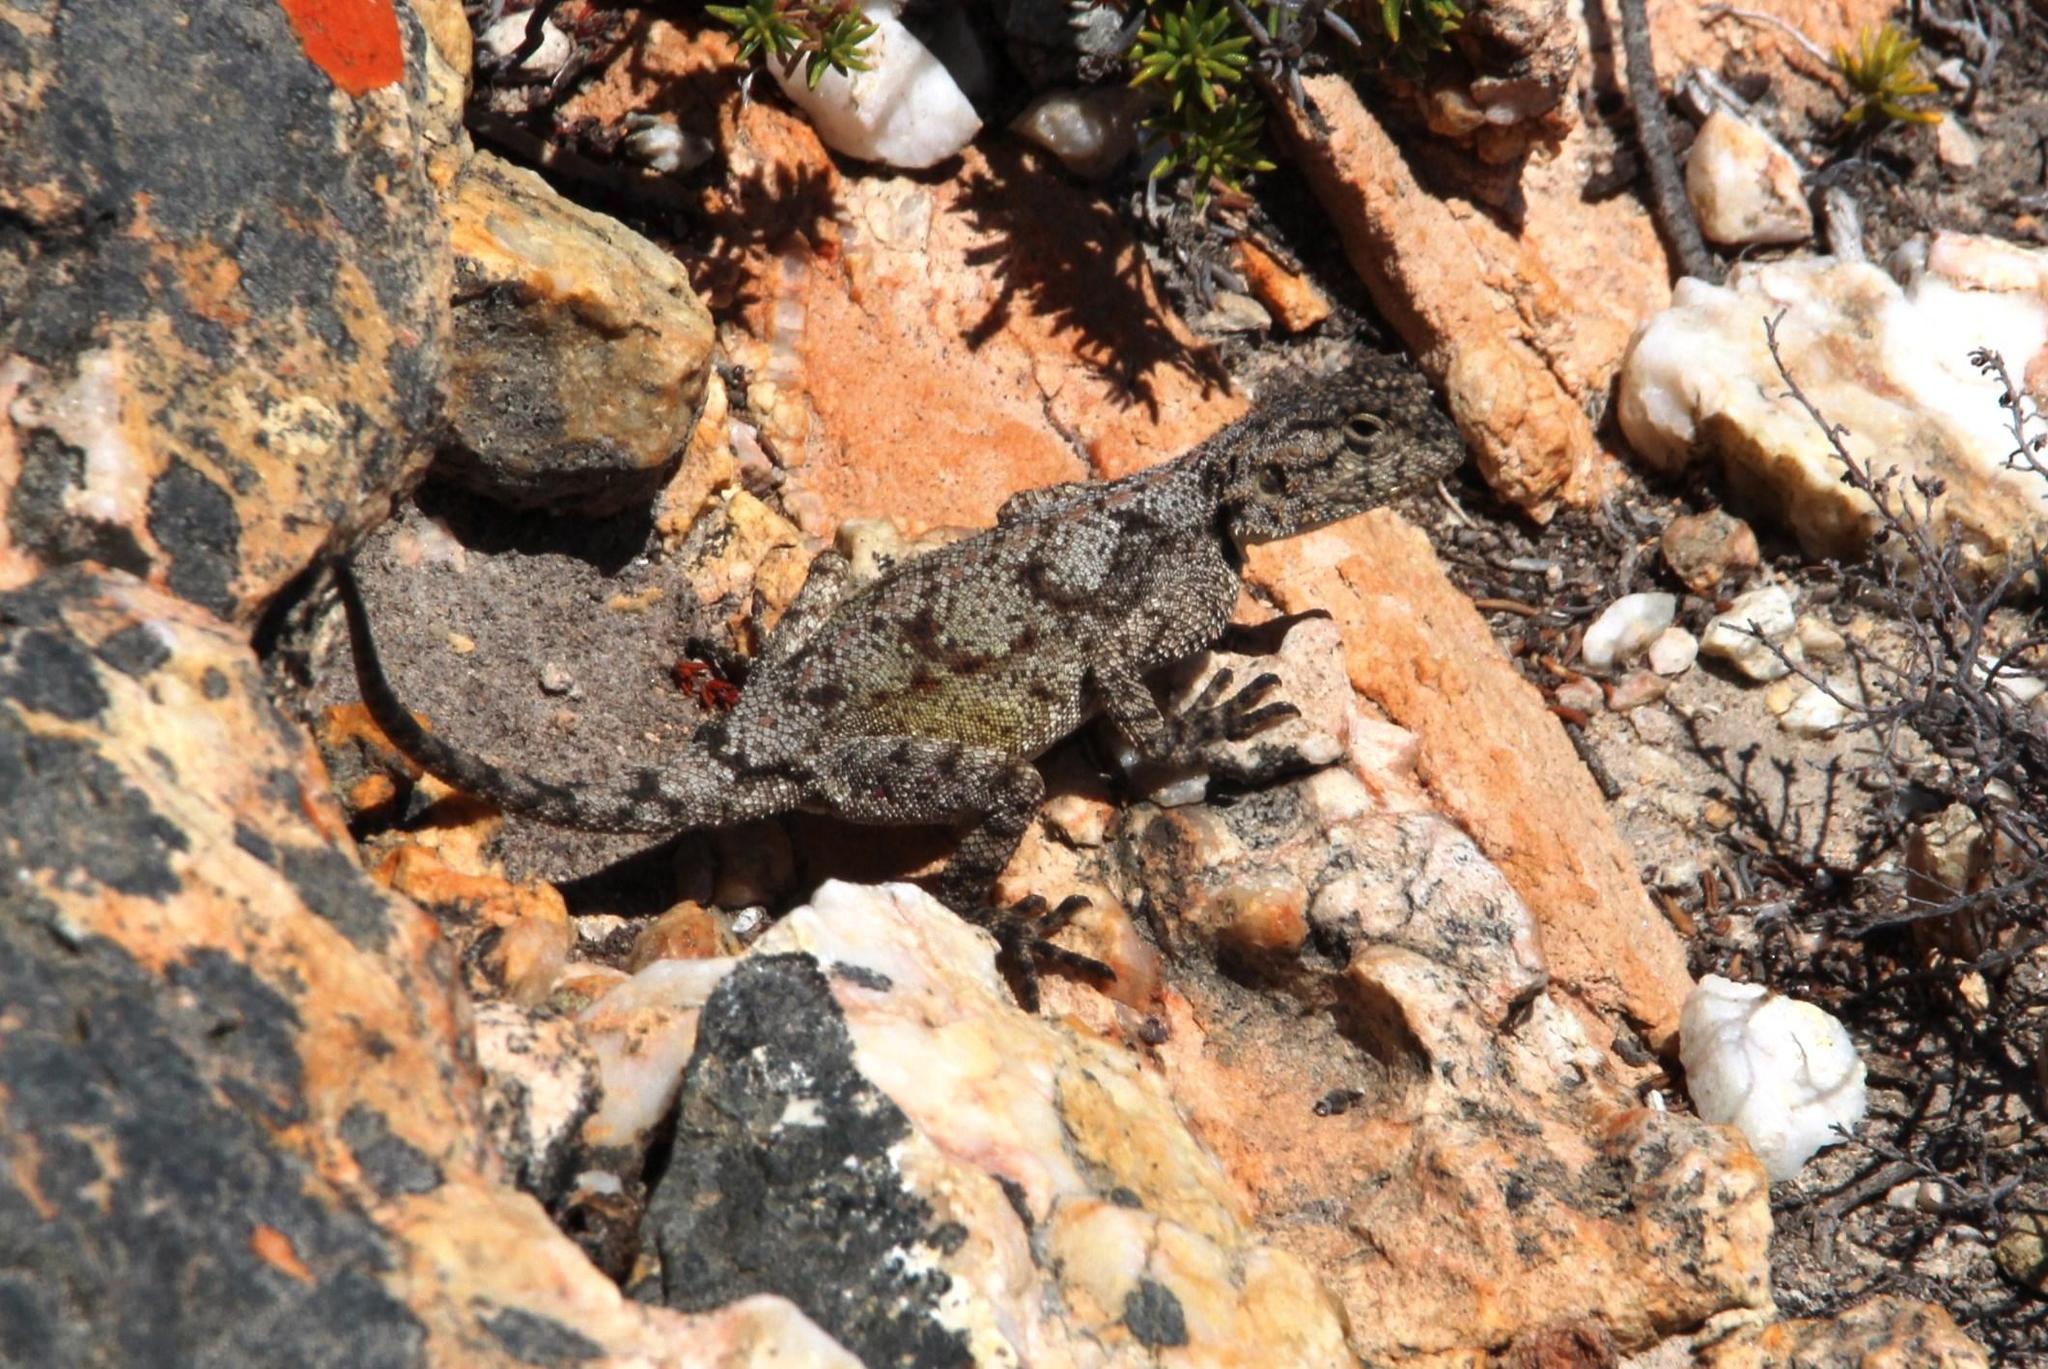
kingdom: Animalia
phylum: Chordata
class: Squamata
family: Agamidae
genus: Agama
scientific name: Agama atra
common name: Southern african rock agama
